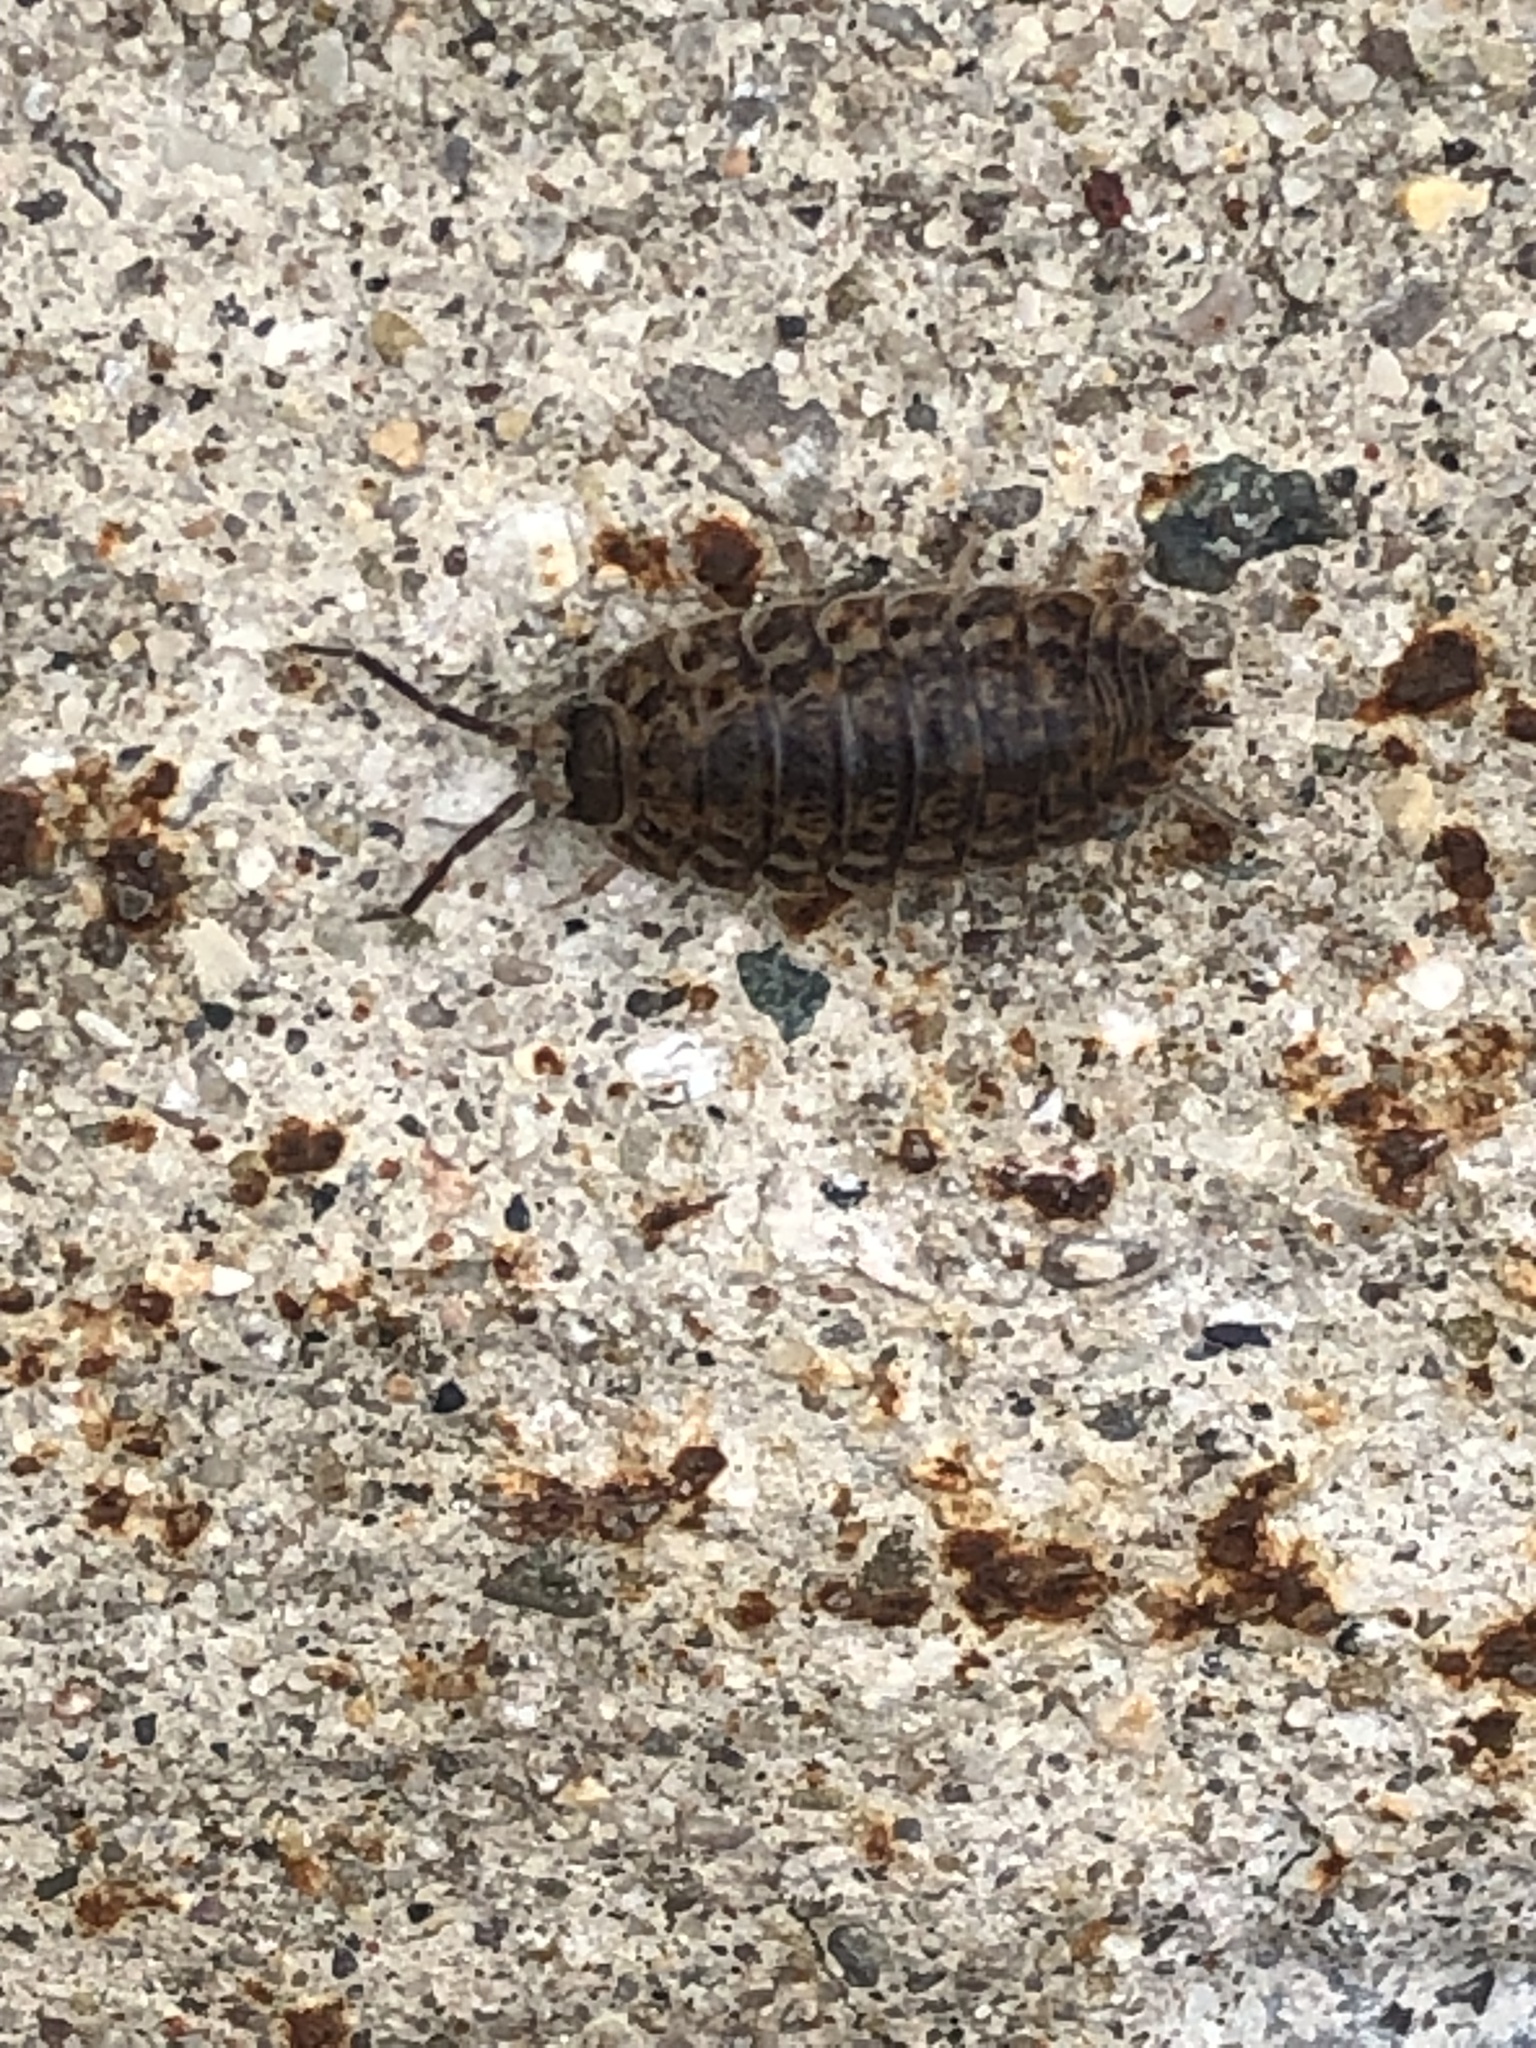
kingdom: Animalia
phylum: Arthropoda
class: Malacostraca
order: Isopoda
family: Trachelipodidae
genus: Trachelipus
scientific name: Trachelipus rathkii
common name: Isopod
